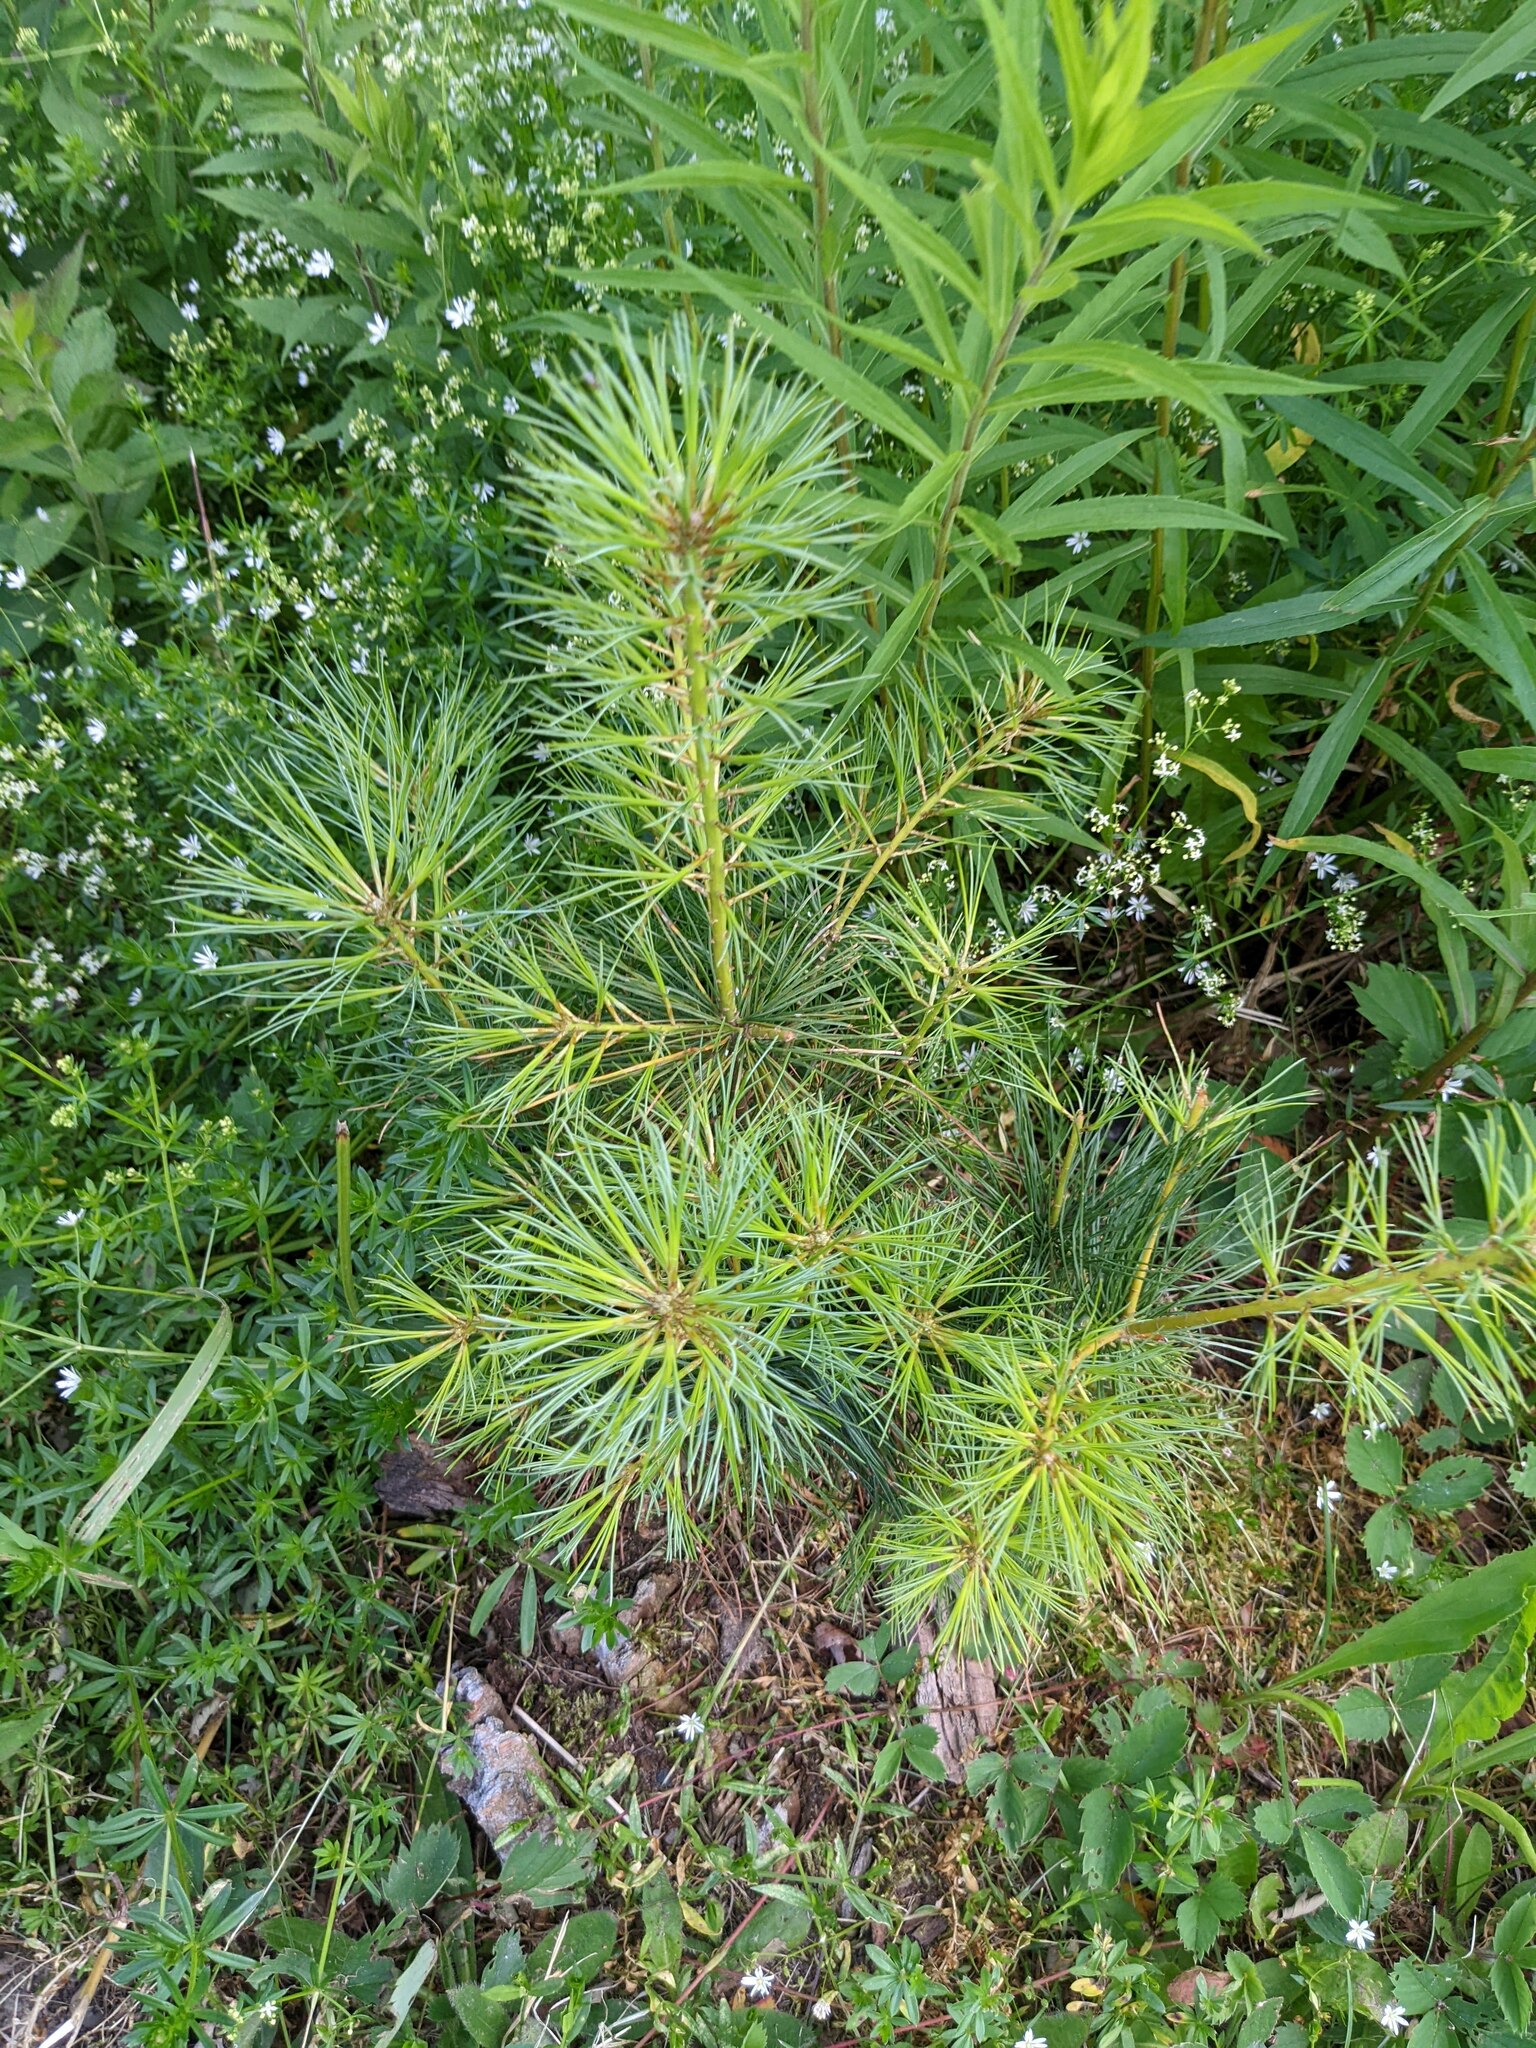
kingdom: Plantae
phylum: Tracheophyta
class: Pinopsida
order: Pinales
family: Pinaceae
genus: Pinus
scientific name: Pinus strobus
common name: Weymouth pine
